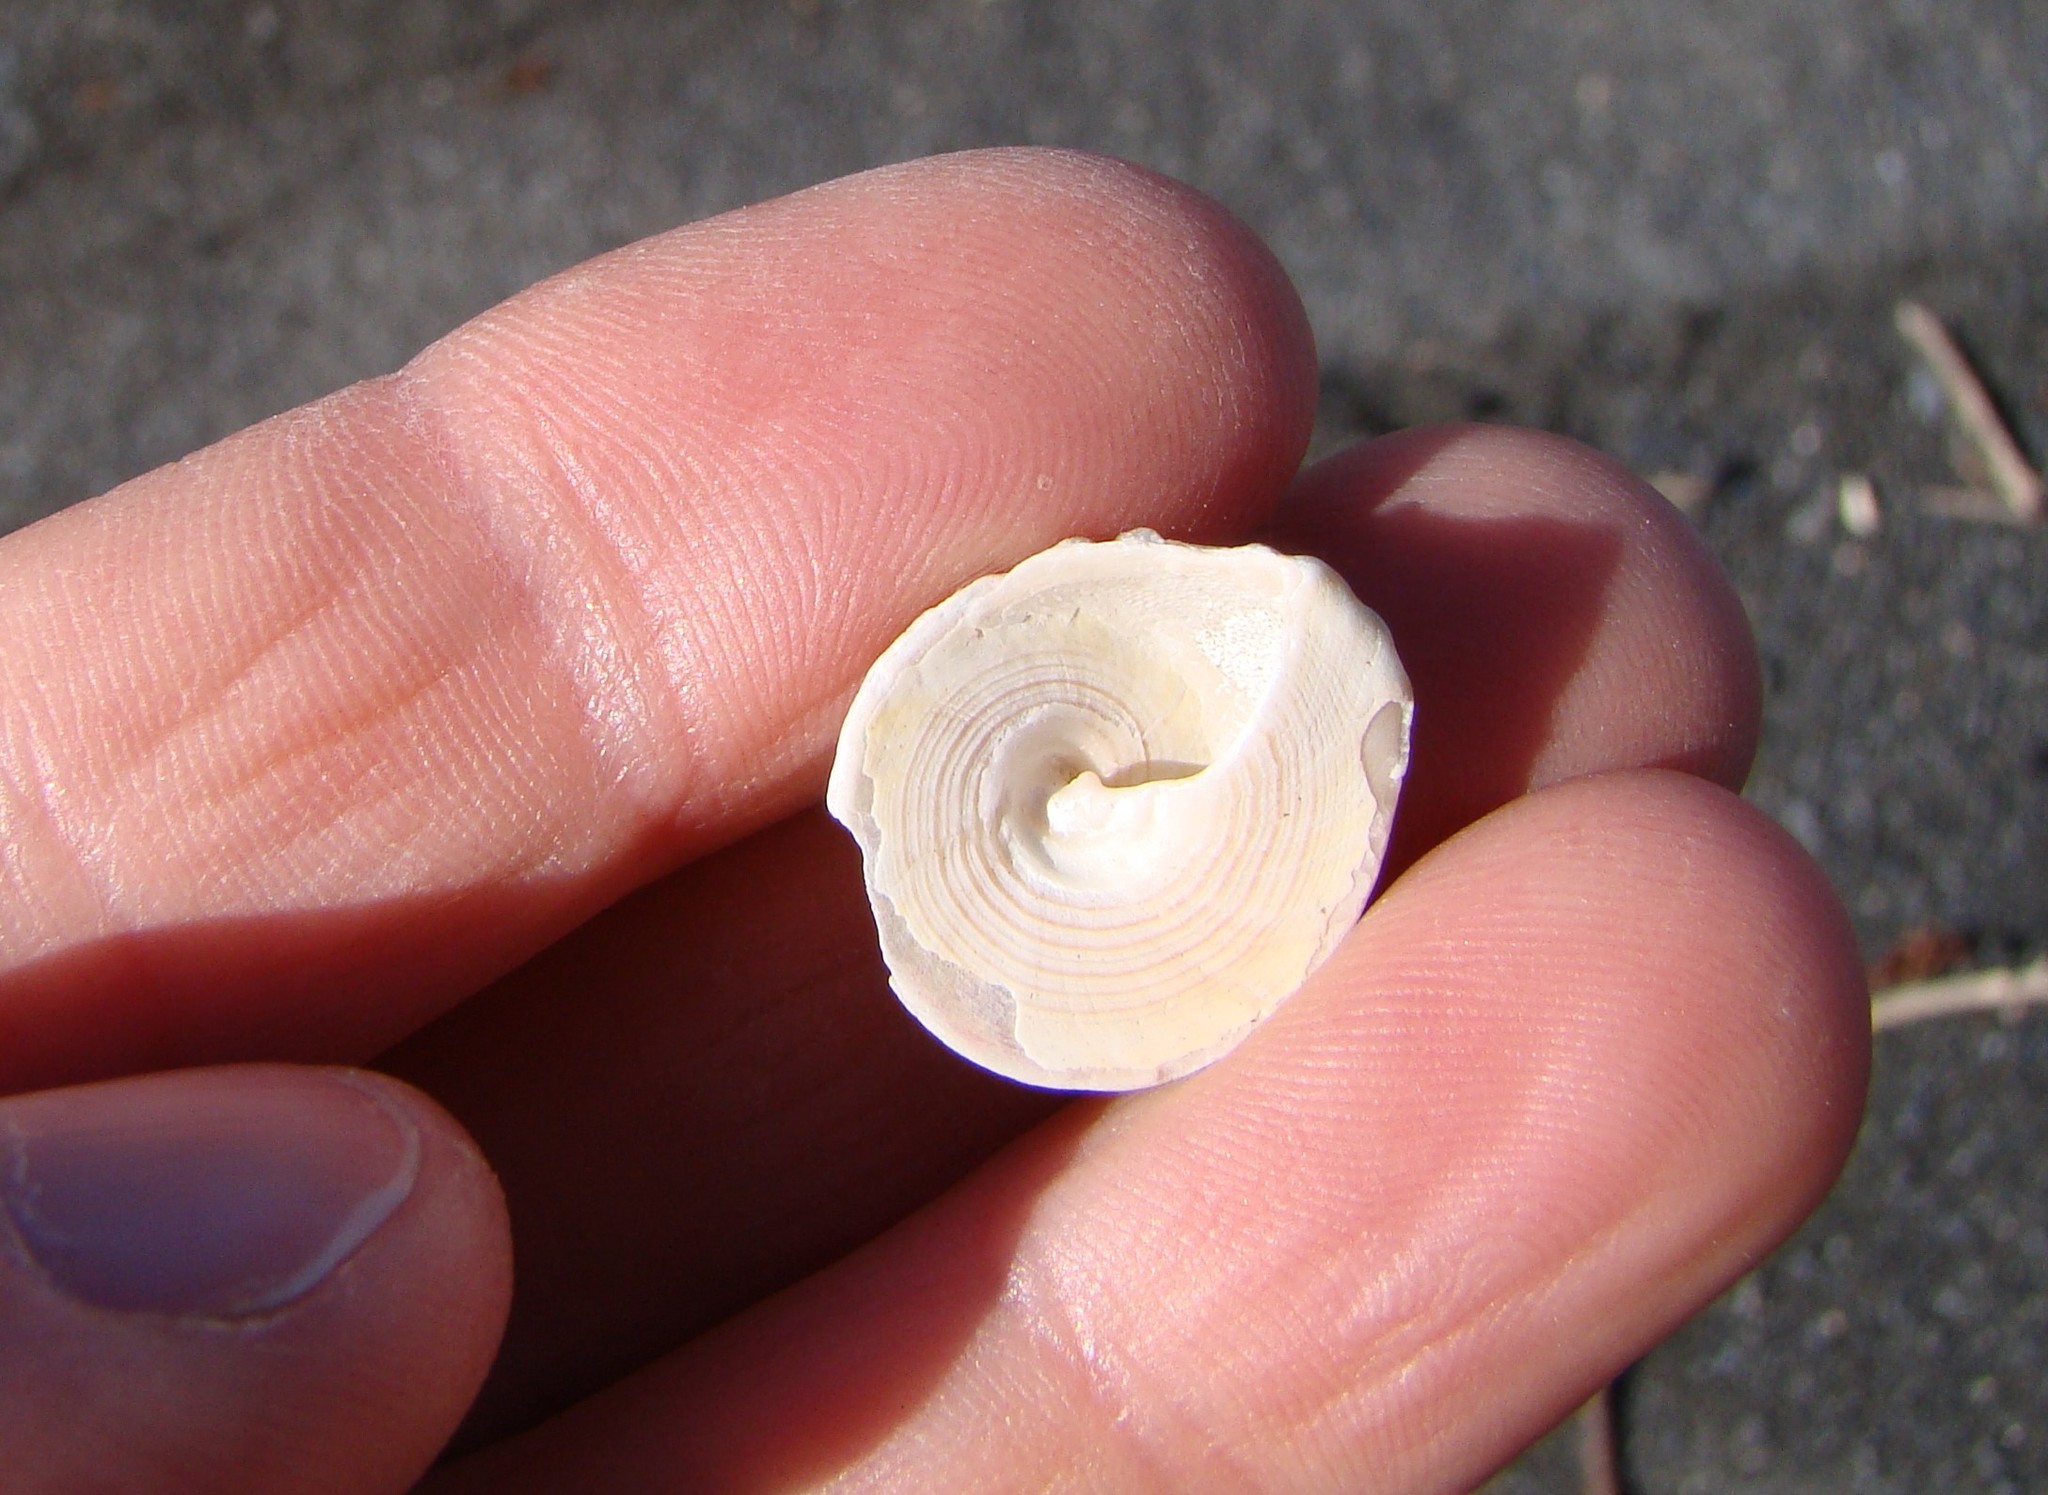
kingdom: Animalia
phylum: Mollusca
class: Gastropoda
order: Trochida
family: Trochidae
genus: Coelotrochus
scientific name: Coelotrochus viridis
